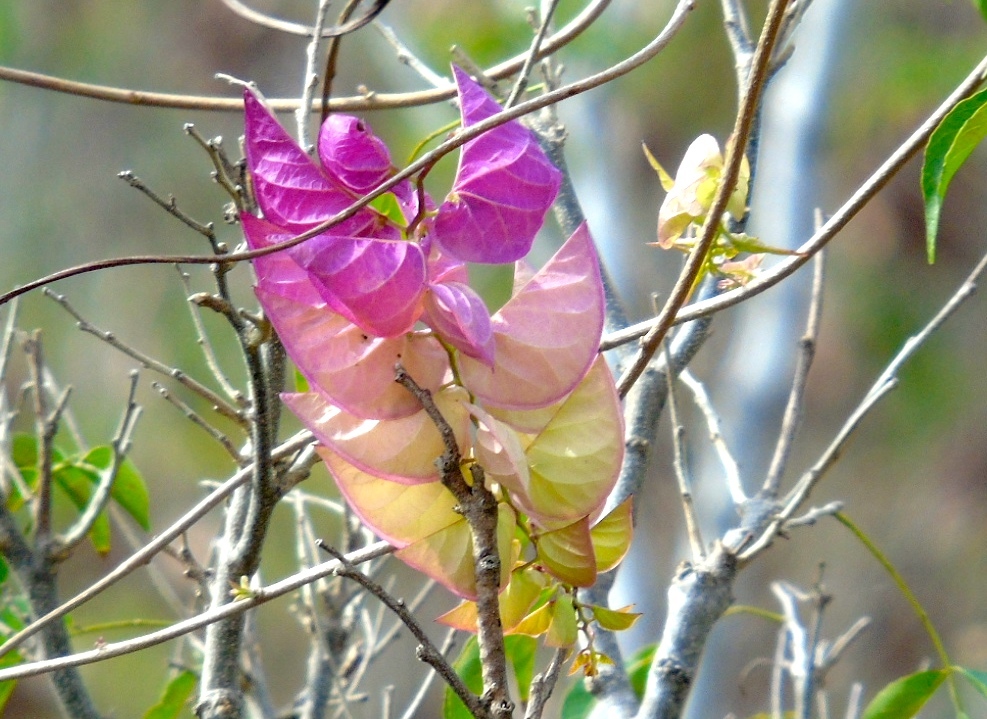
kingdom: Plantae
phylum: Tracheophyta
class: Magnoliopsida
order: Solanales
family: Convolvulaceae
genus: Ipomoea
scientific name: Ipomoea bracteata
